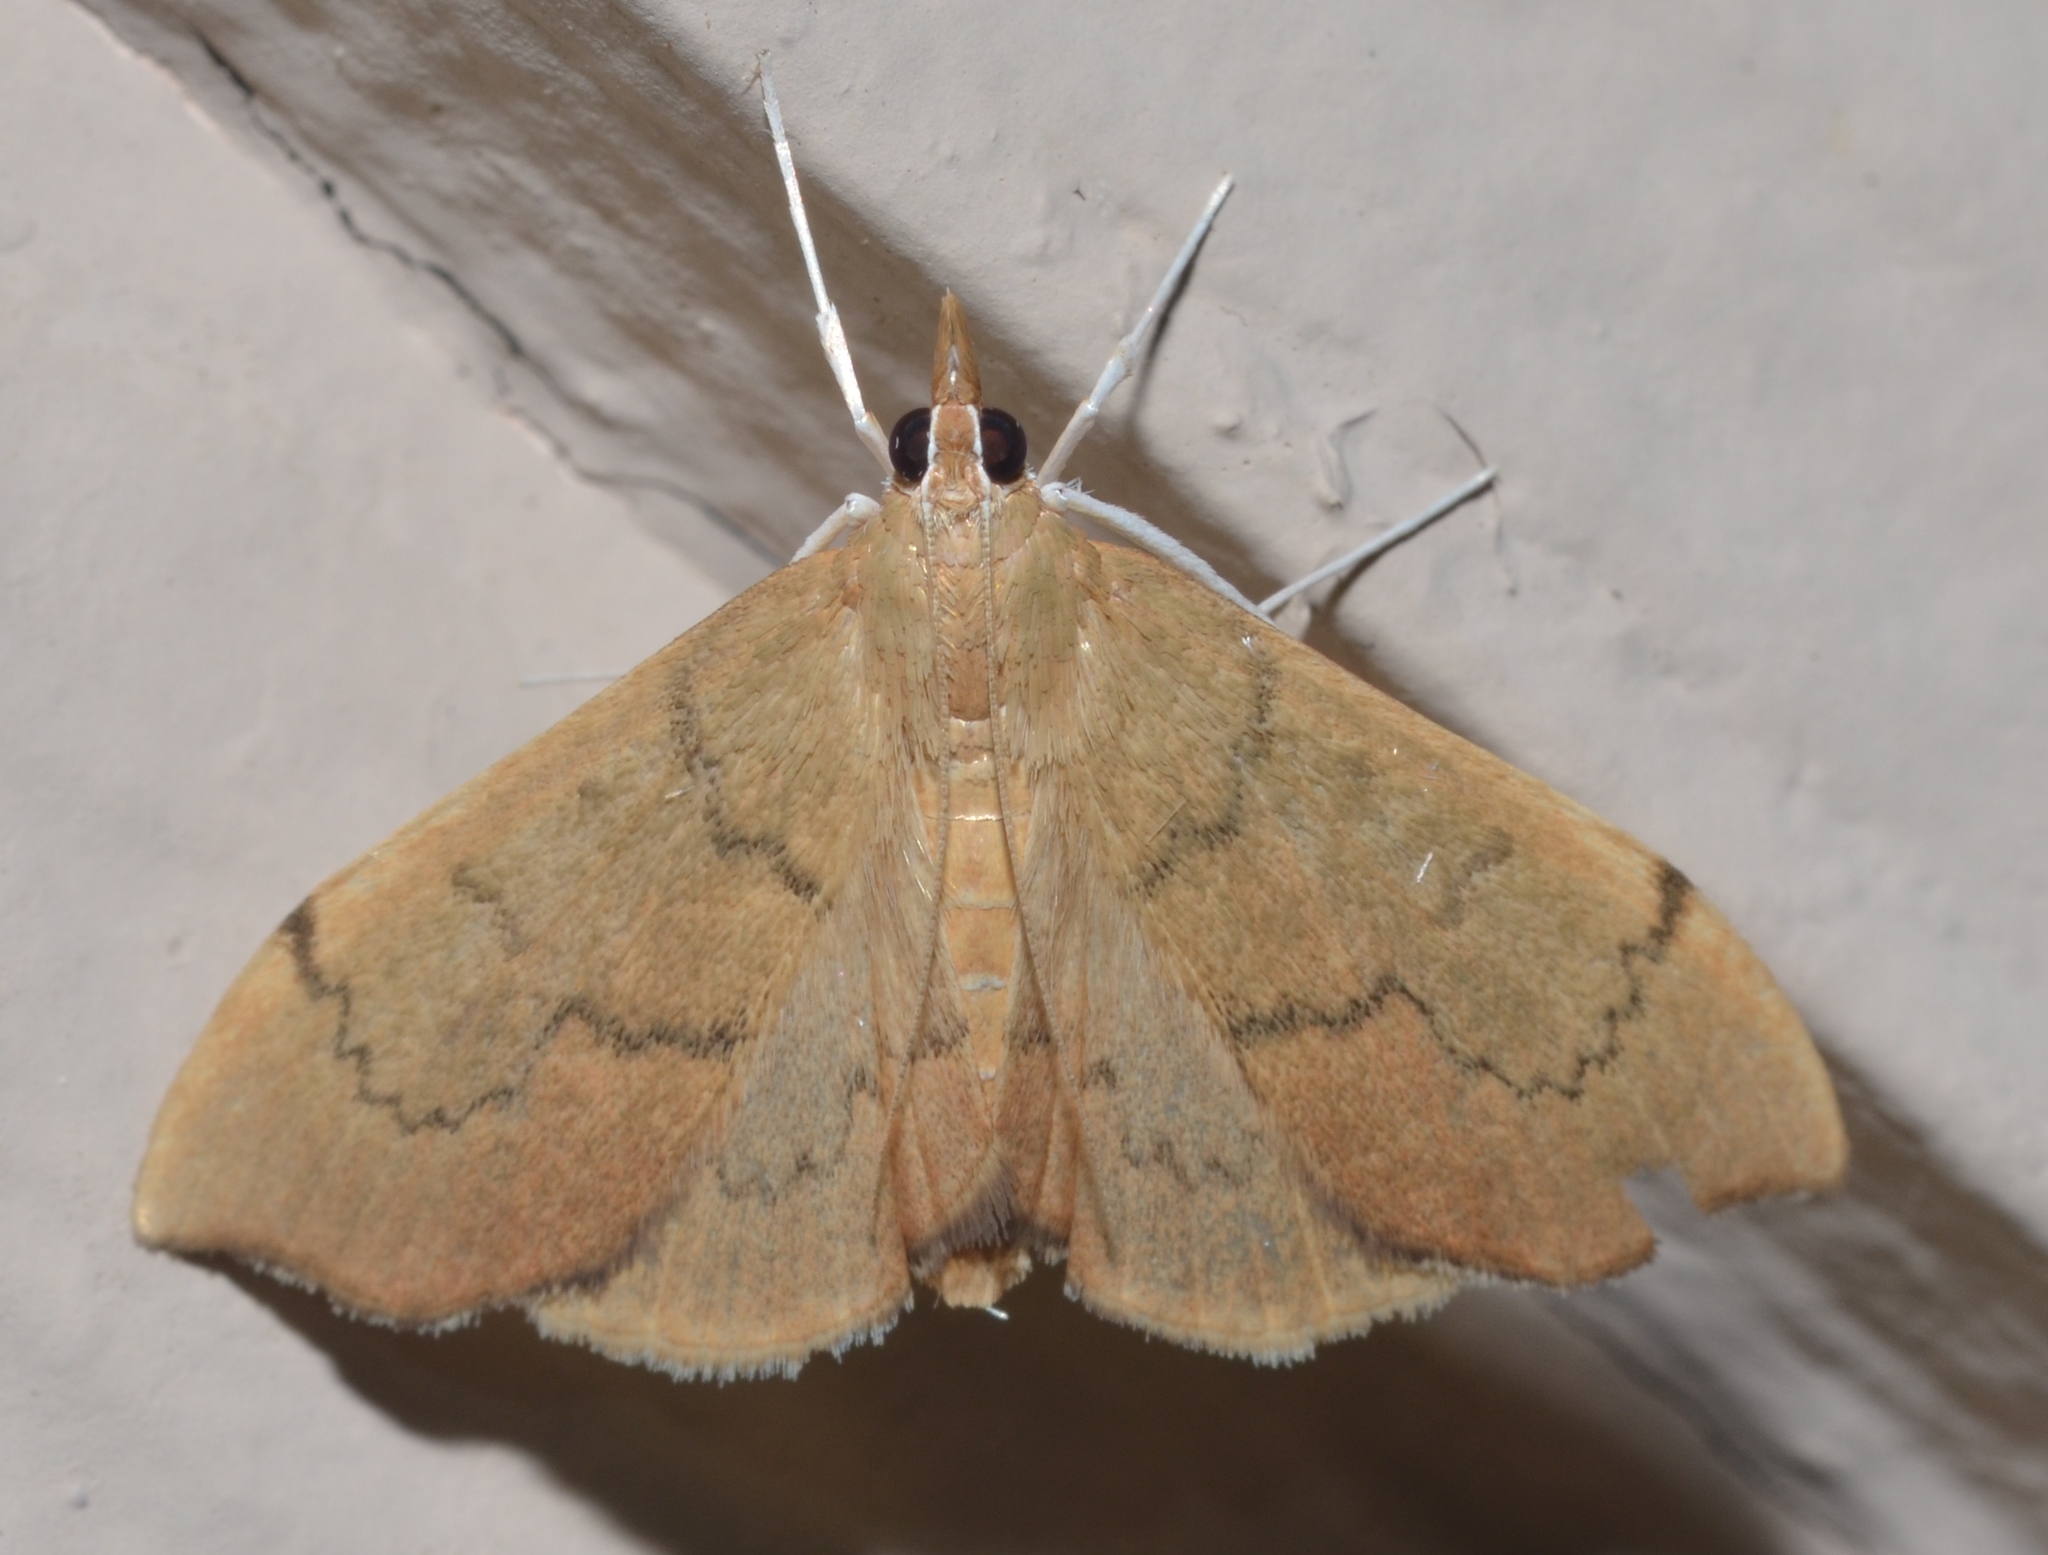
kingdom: Animalia
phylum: Arthropoda
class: Insecta
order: Lepidoptera
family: Crambidae
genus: Sericoplaga
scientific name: Sericoplaga externalis
